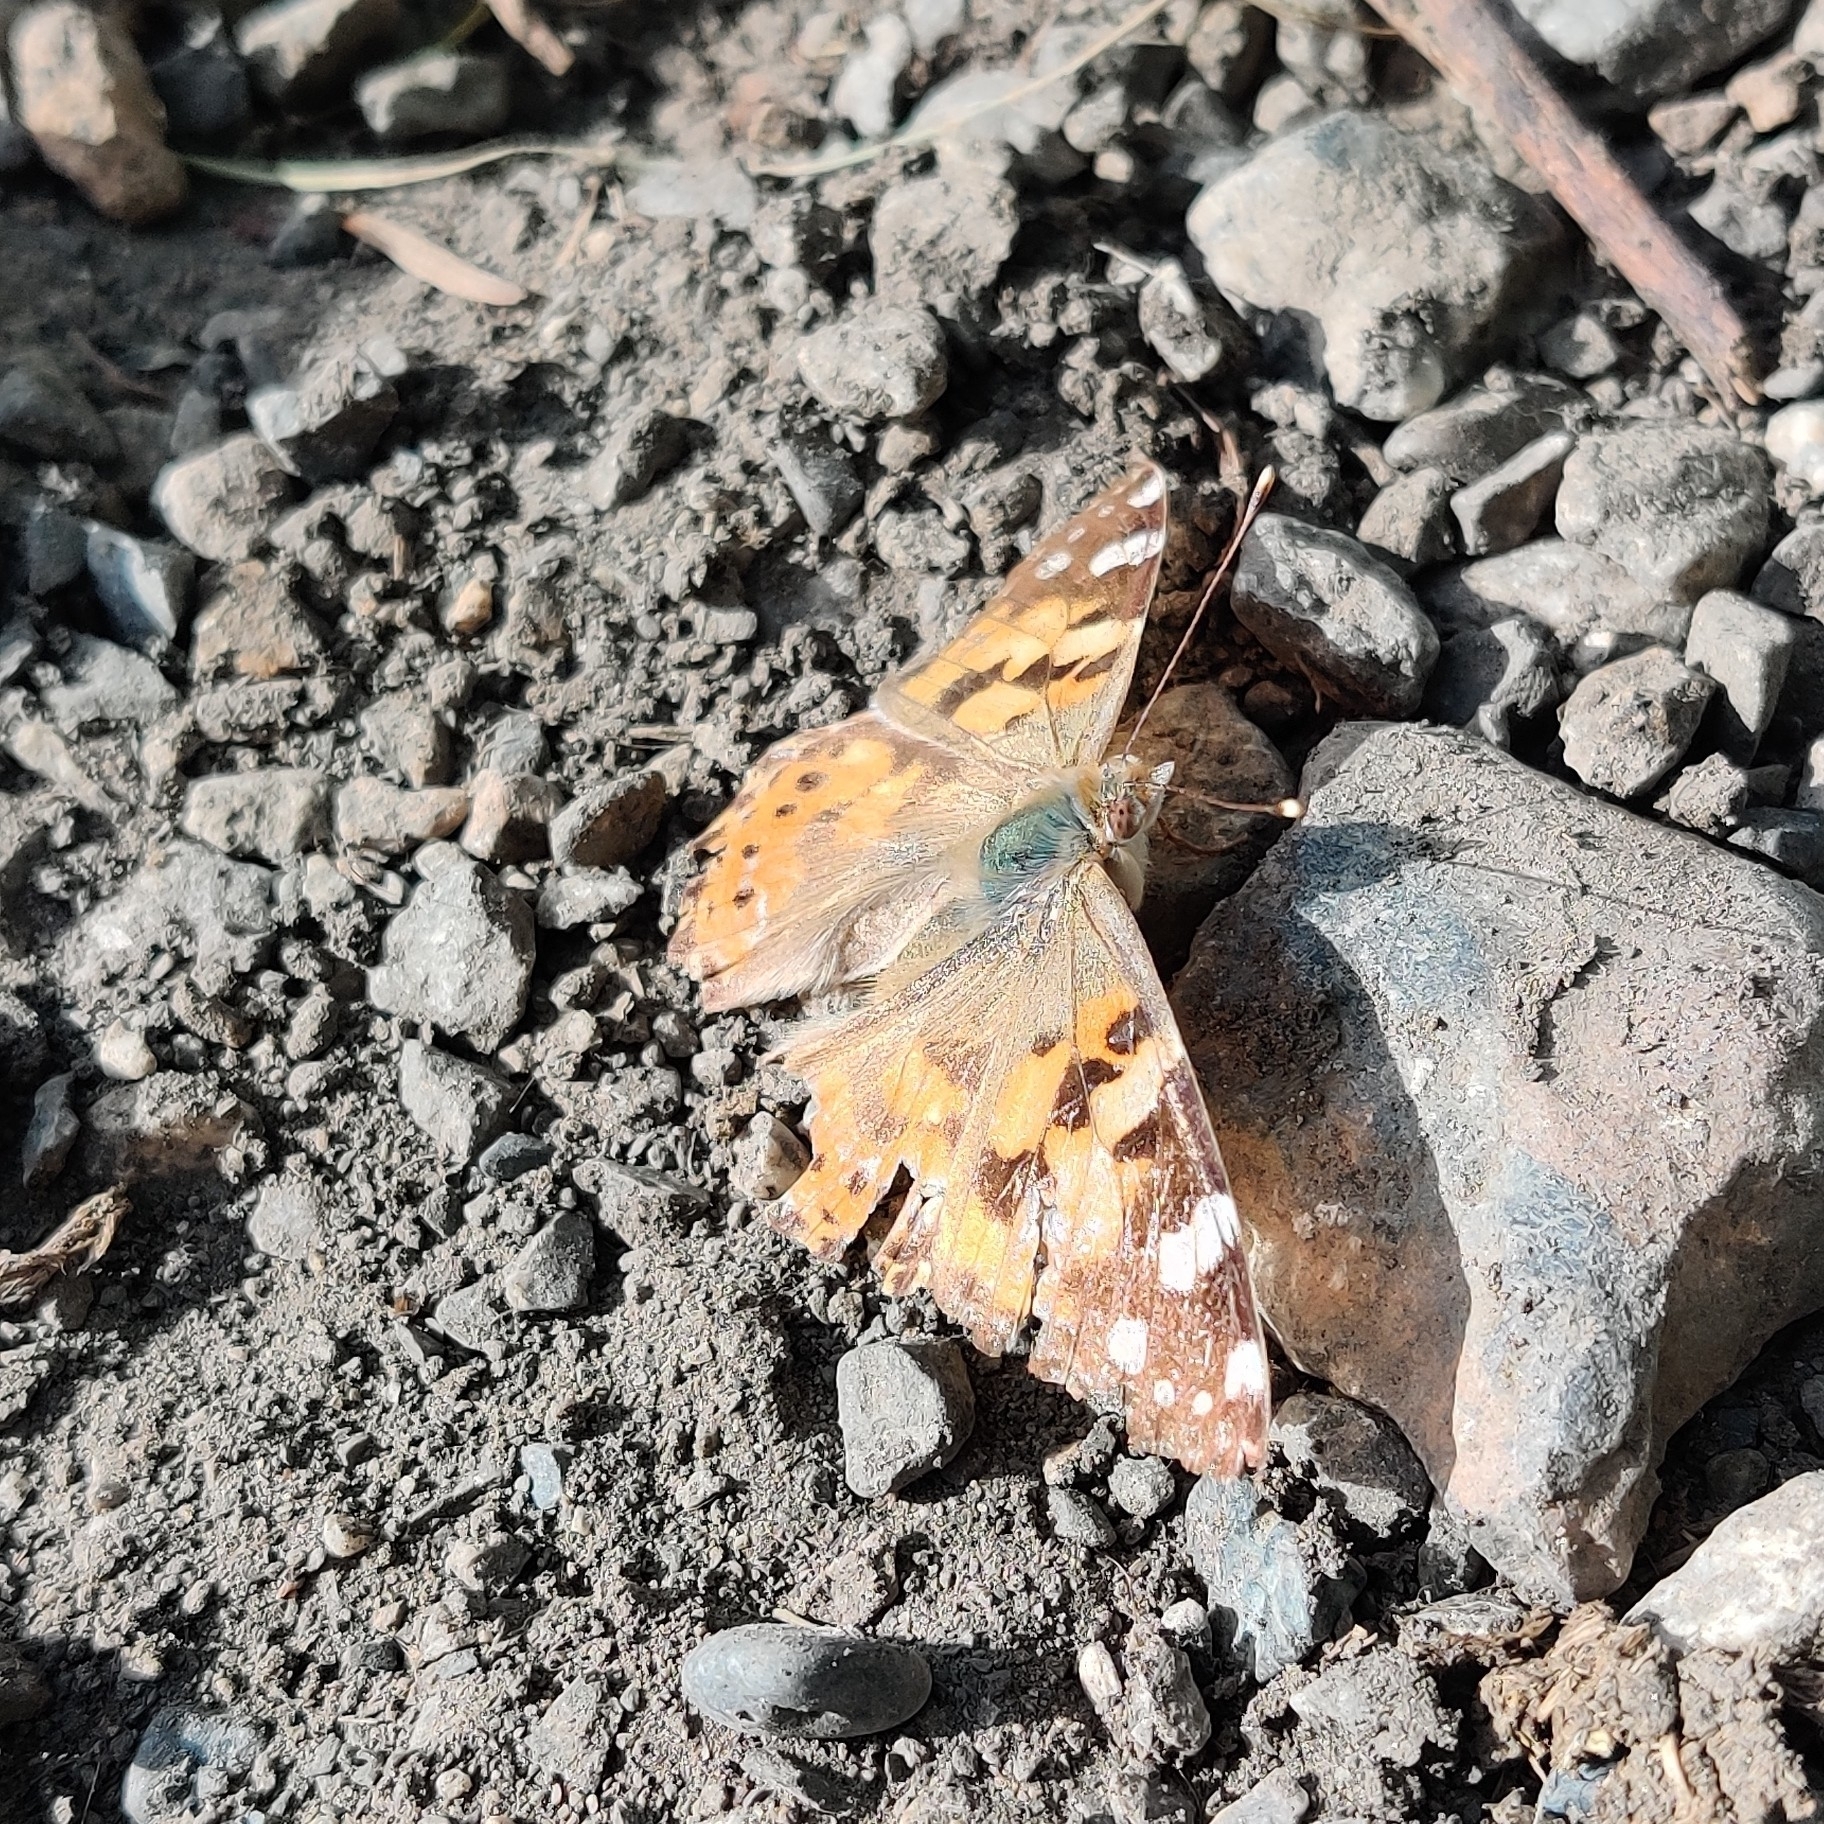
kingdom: Animalia
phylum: Arthropoda
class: Insecta
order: Lepidoptera
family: Nymphalidae
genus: Vanessa
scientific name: Vanessa cardui
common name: Painted lady
